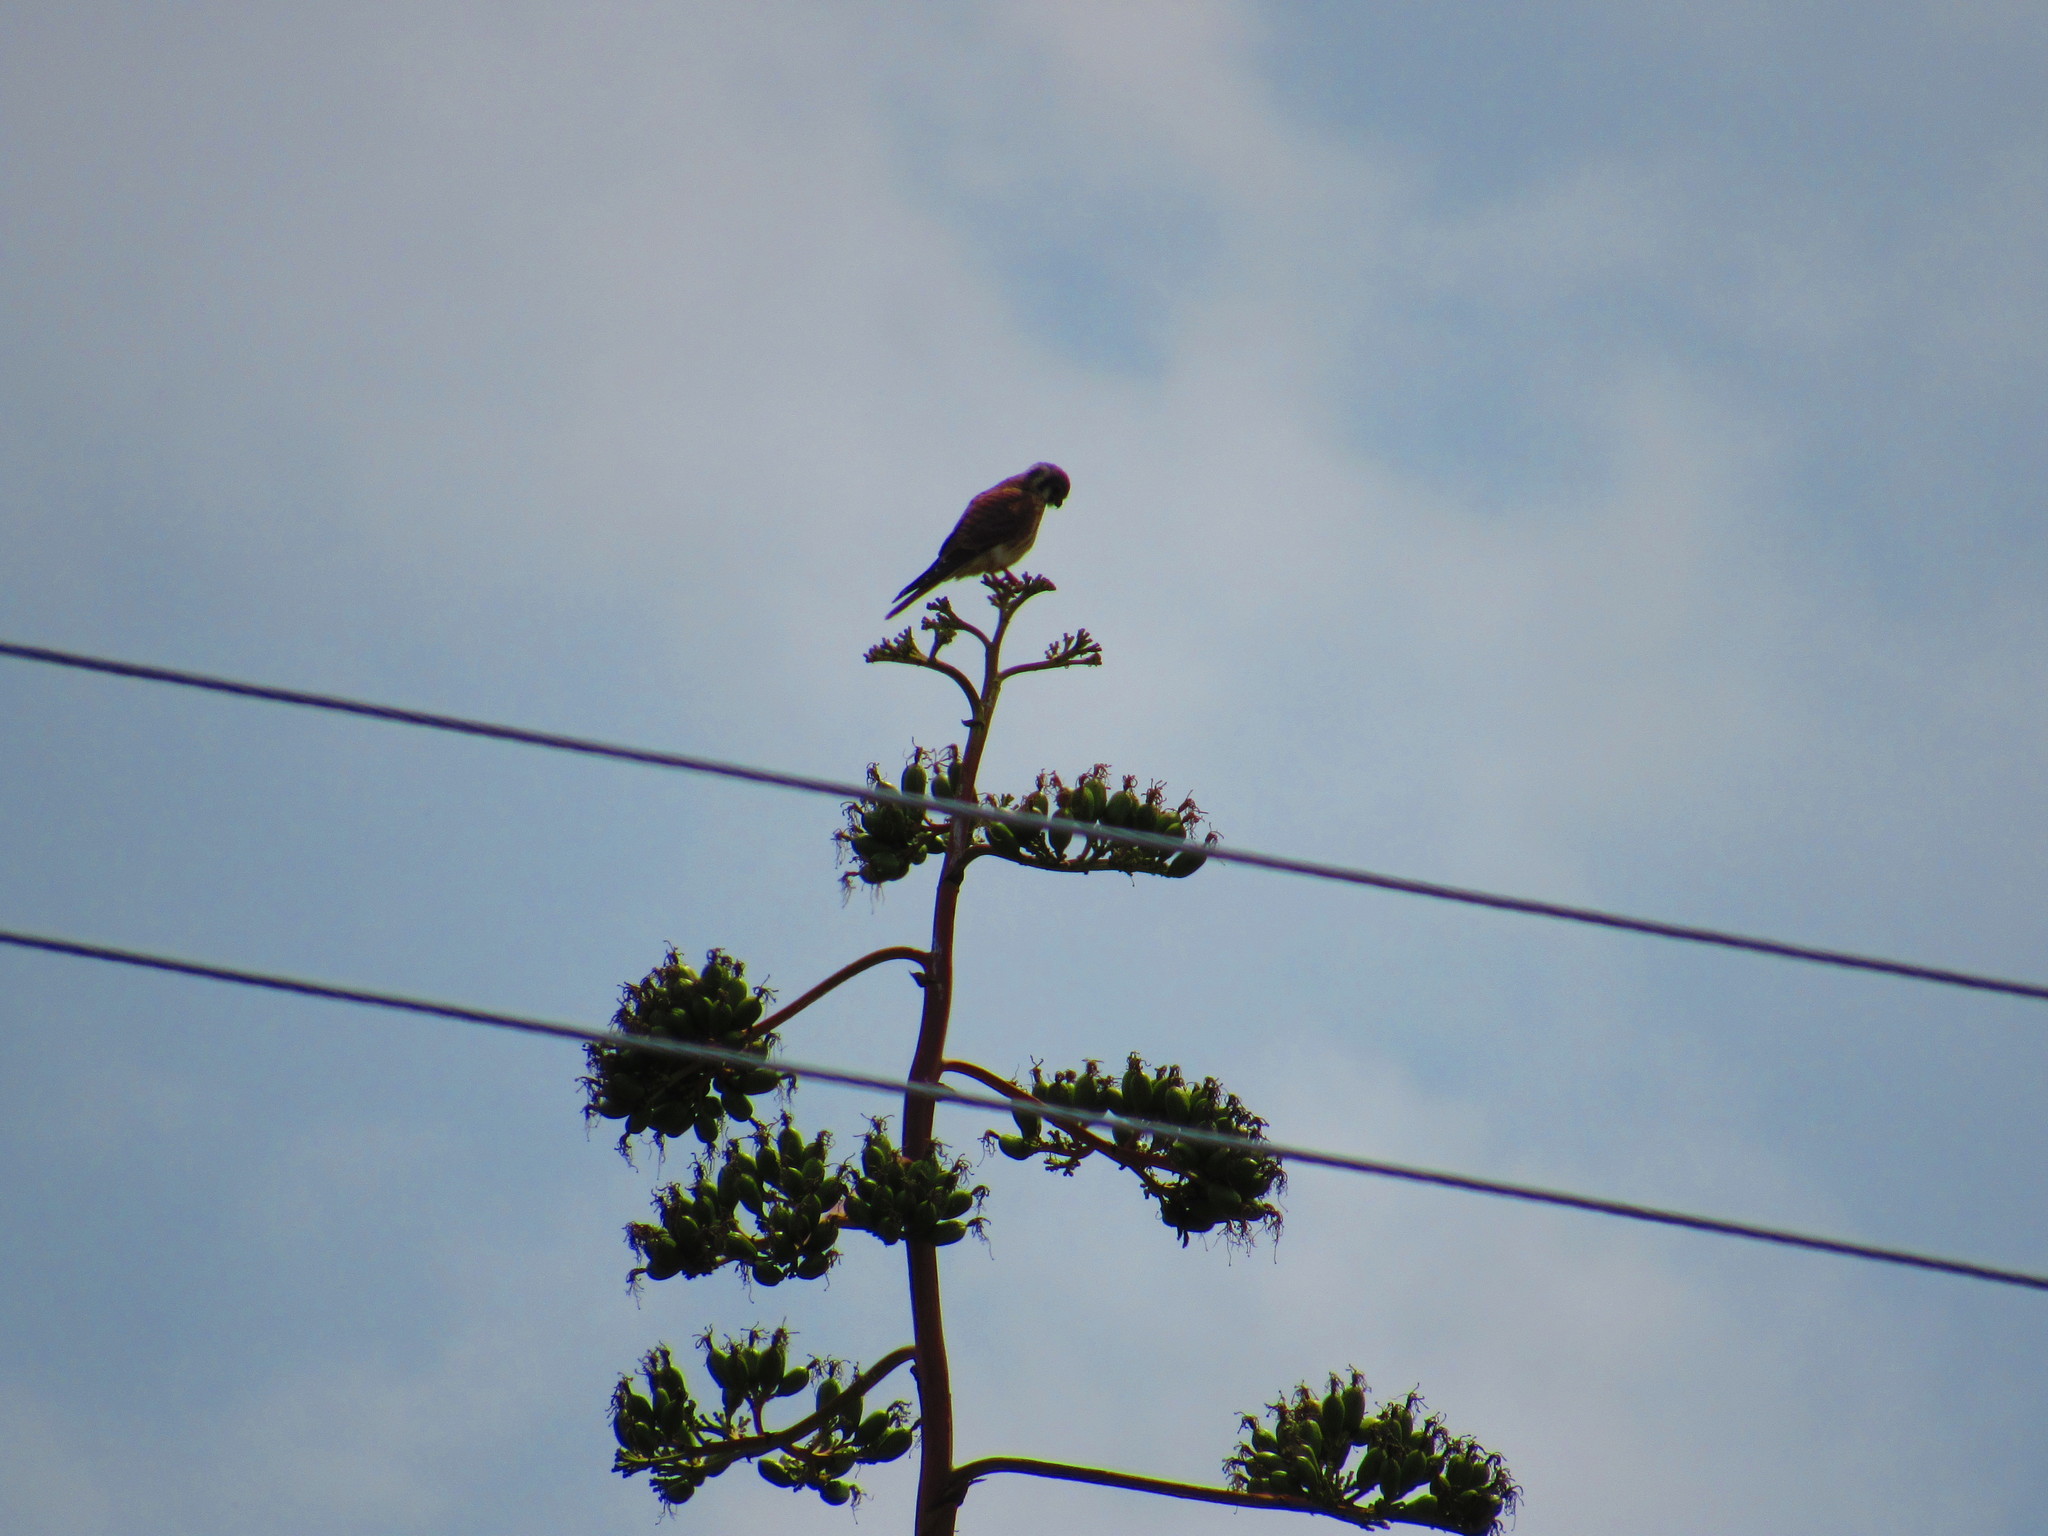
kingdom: Animalia
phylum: Chordata
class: Aves
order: Falconiformes
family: Falconidae
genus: Falco
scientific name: Falco sparverius
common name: American kestrel
